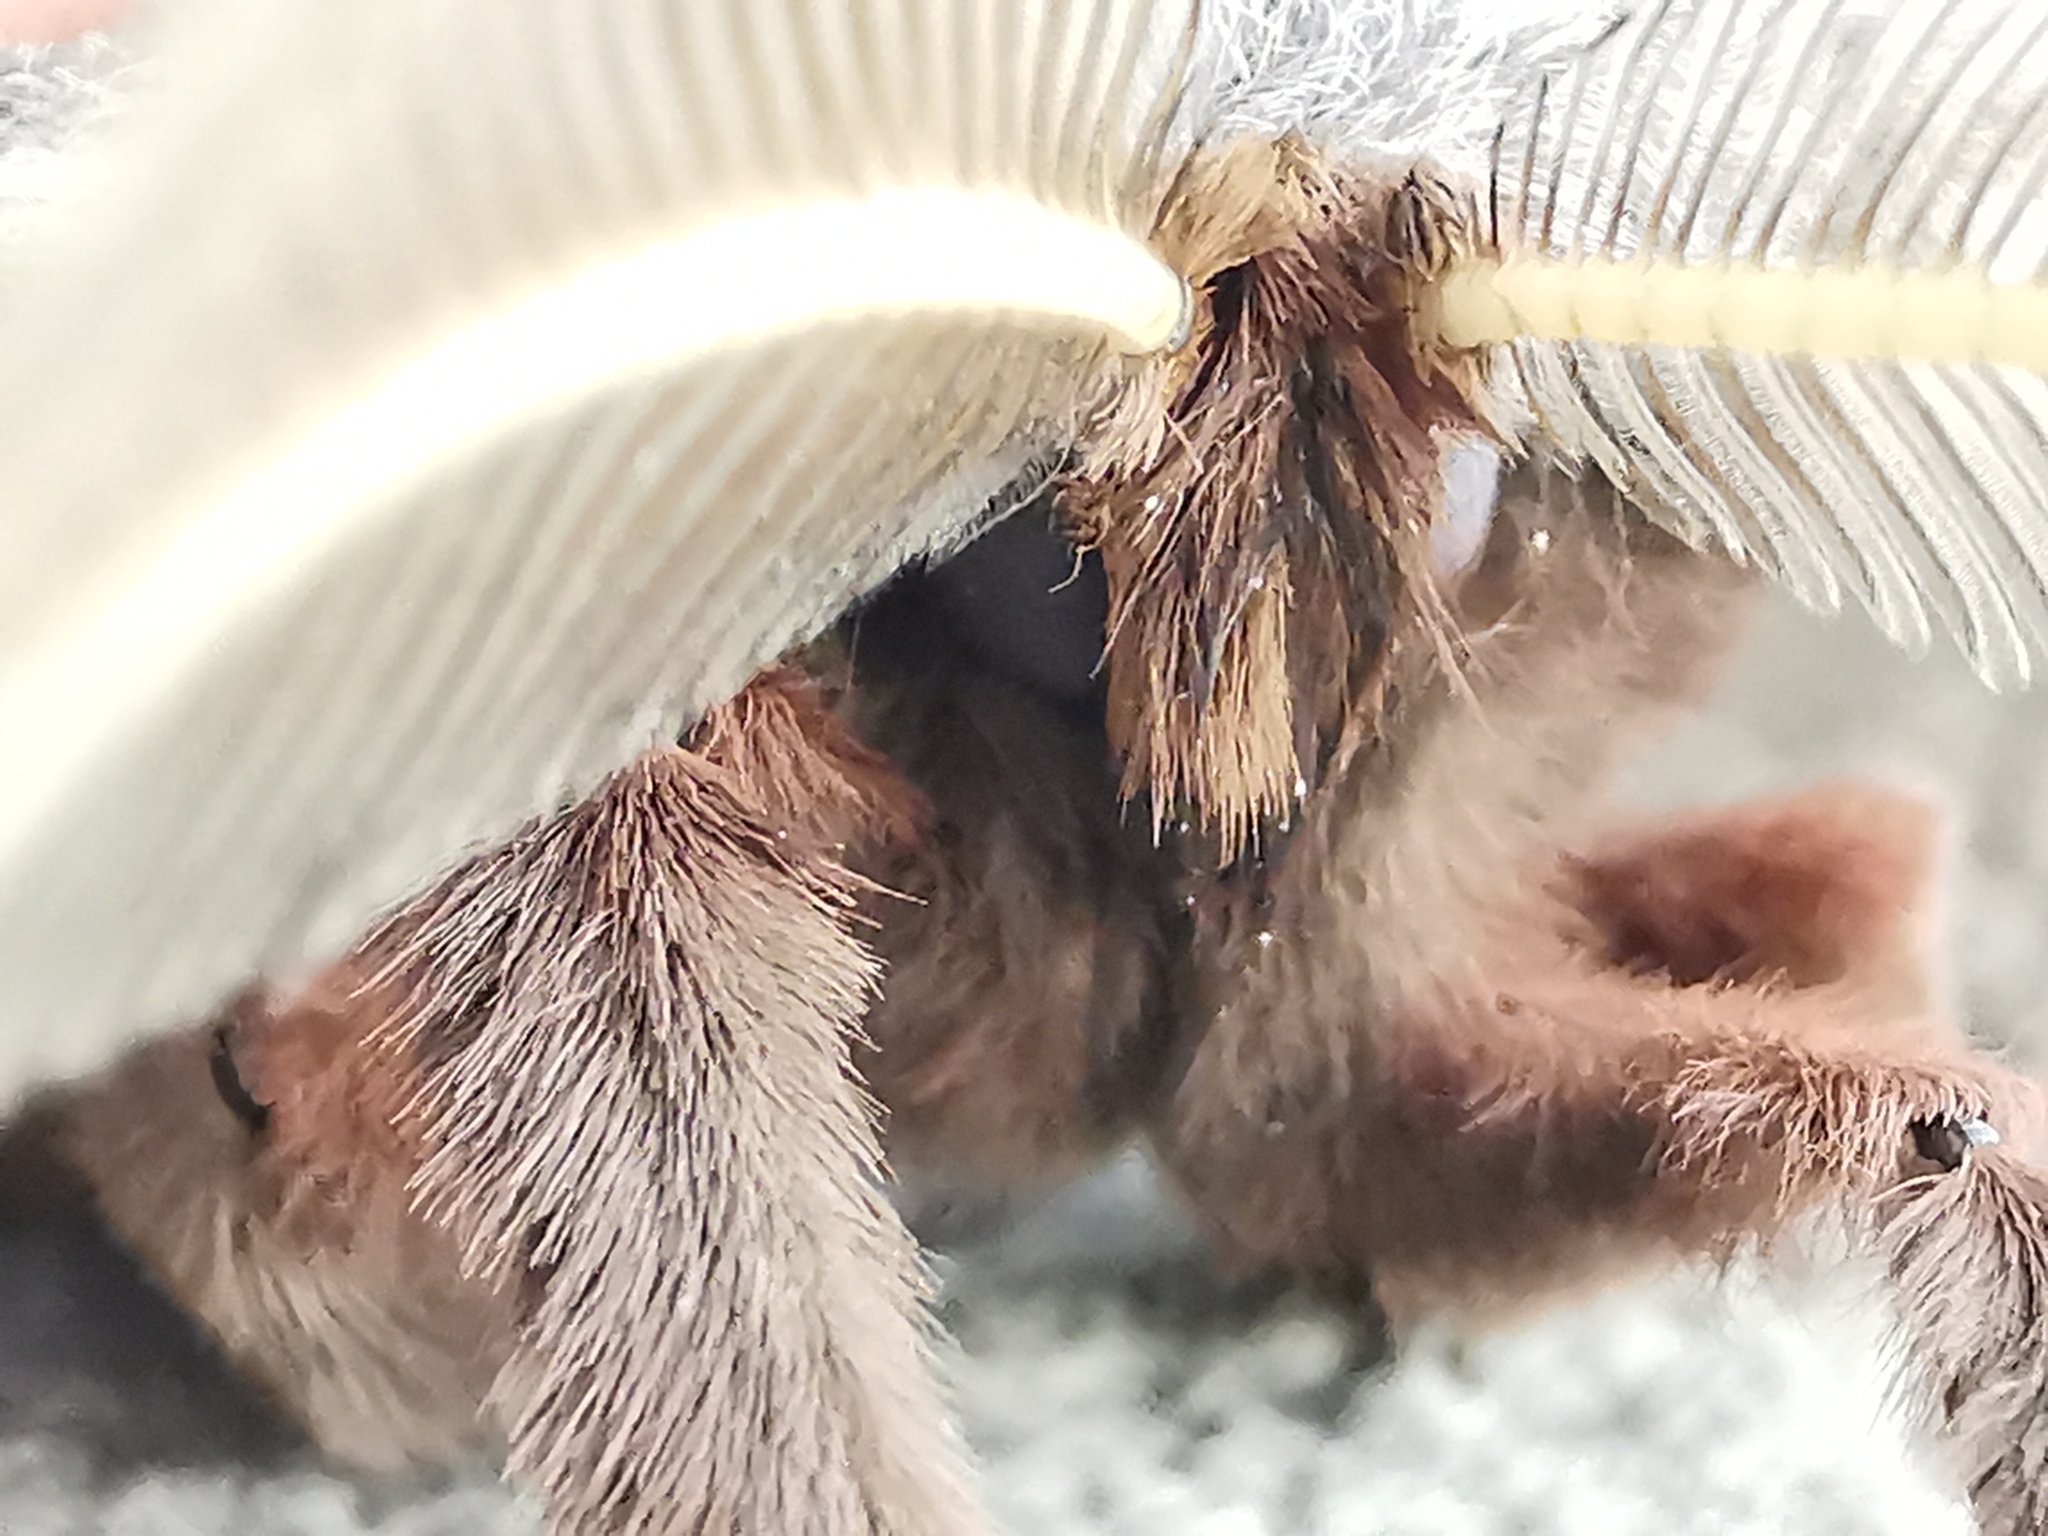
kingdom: Animalia
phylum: Arthropoda
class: Insecta
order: Lepidoptera
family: Saturniidae
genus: Antheraea
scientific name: Antheraea polyphemus
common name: Polyphemus moth
